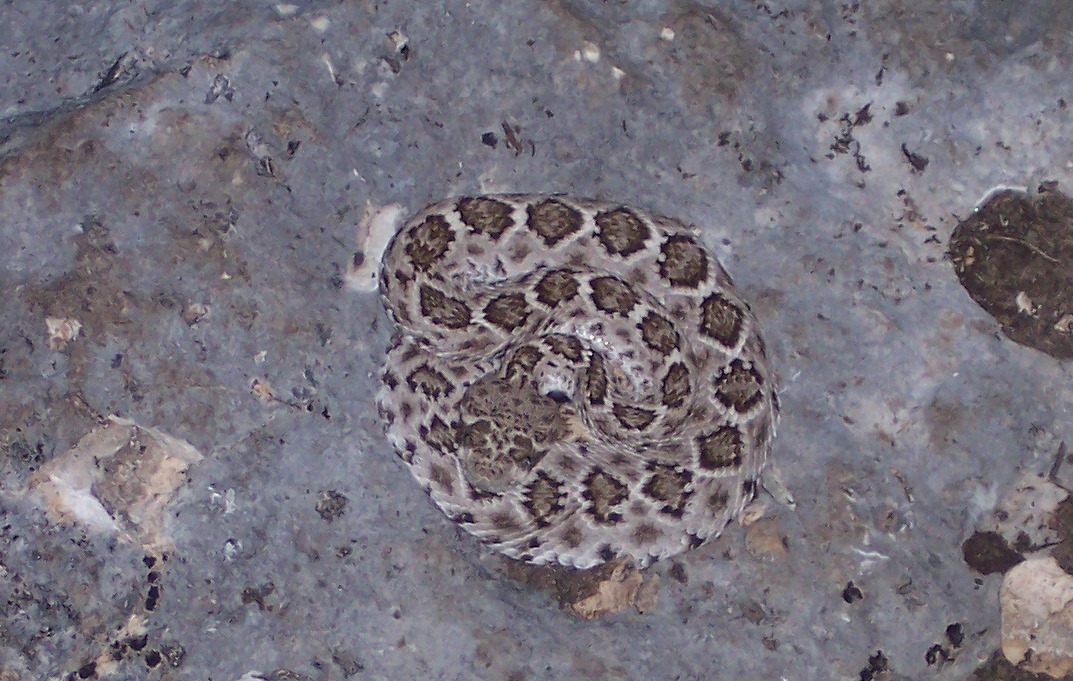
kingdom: Animalia
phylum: Chordata
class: Squamata
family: Viperidae
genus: Crotalus
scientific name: Crotalus atrox
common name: Western diamond-backed rattlesnake
